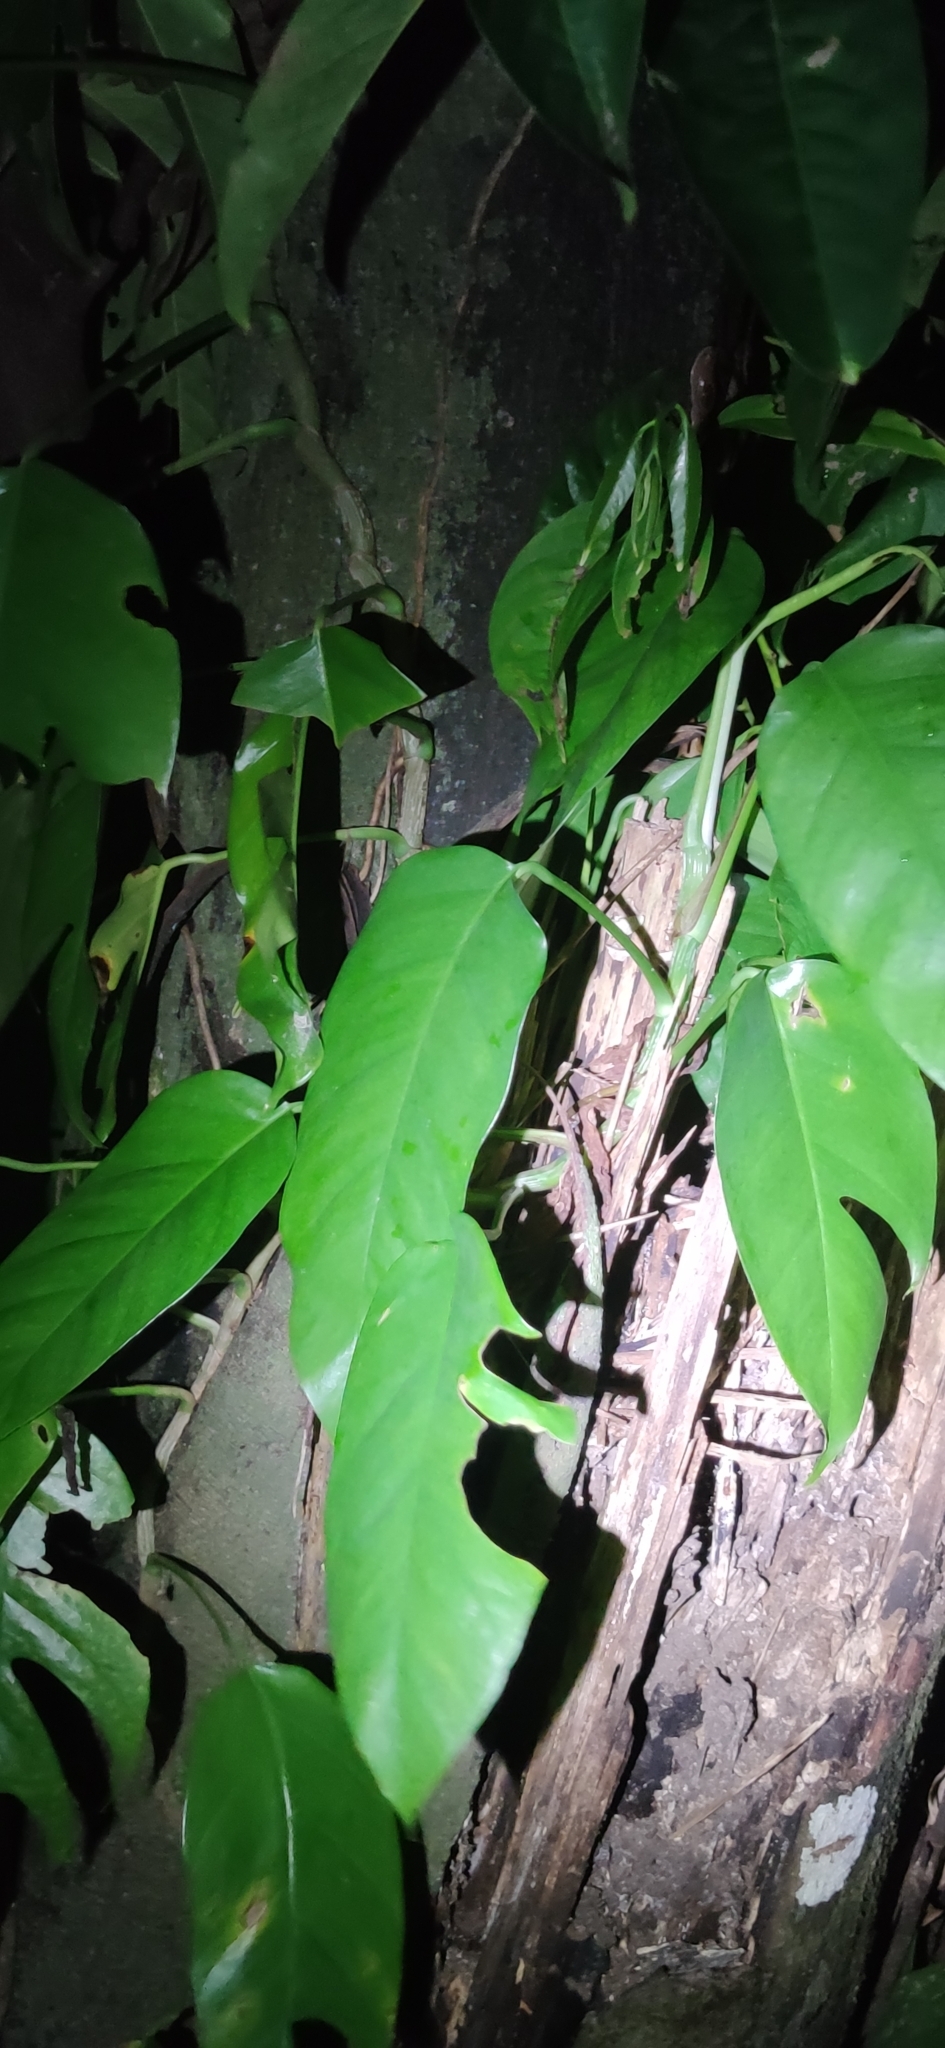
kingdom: Plantae
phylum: Tracheophyta
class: Liliopsida
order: Alismatales
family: Araceae
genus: Epipremnum
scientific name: Epipremnum pinnatum
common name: Centipede tongavine
